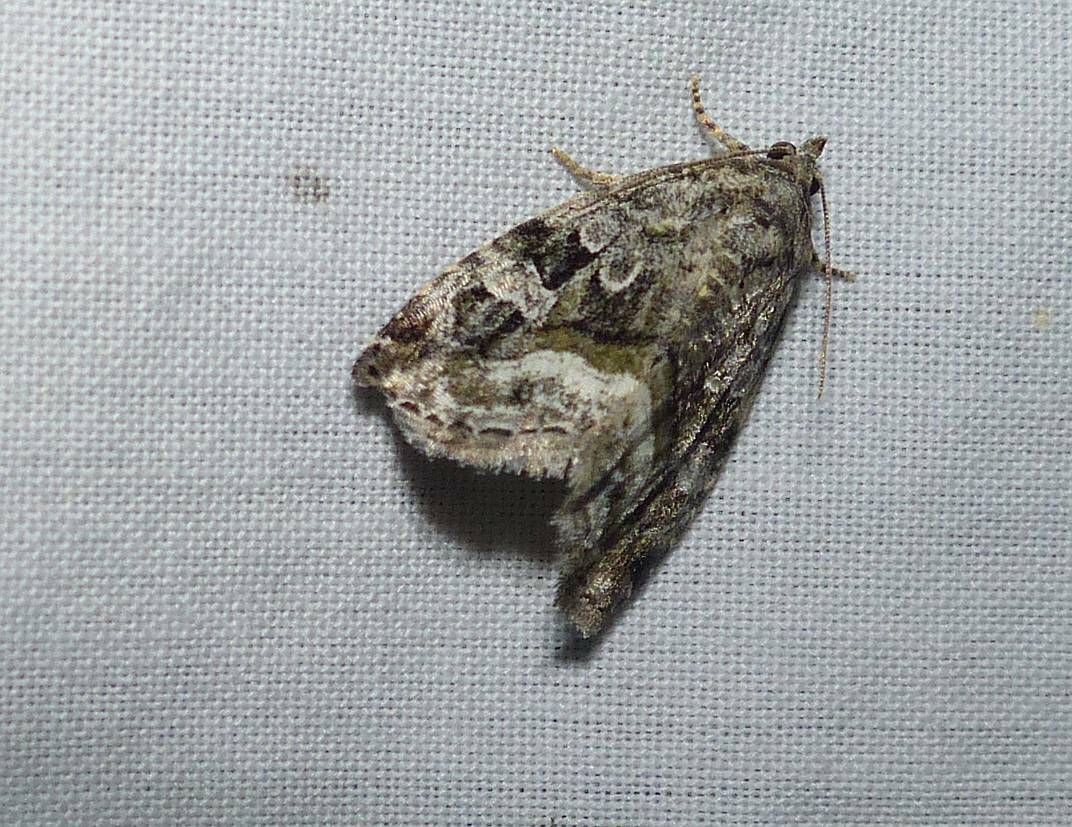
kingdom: Animalia
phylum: Arthropoda
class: Insecta
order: Lepidoptera
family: Noctuidae
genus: Protodeltote
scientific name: Protodeltote muscosula
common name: Large mossy glyph
